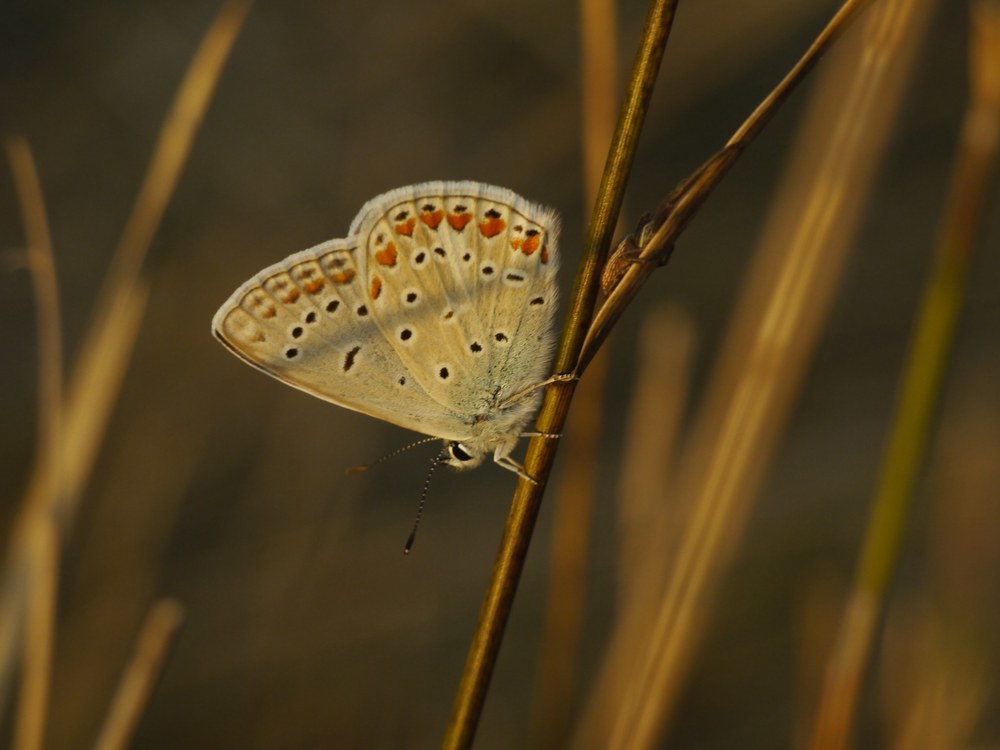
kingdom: Animalia
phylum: Arthropoda
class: Insecta
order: Lepidoptera
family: Lycaenidae
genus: Polyommatus
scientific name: Polyommatus icarus
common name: Common blue
